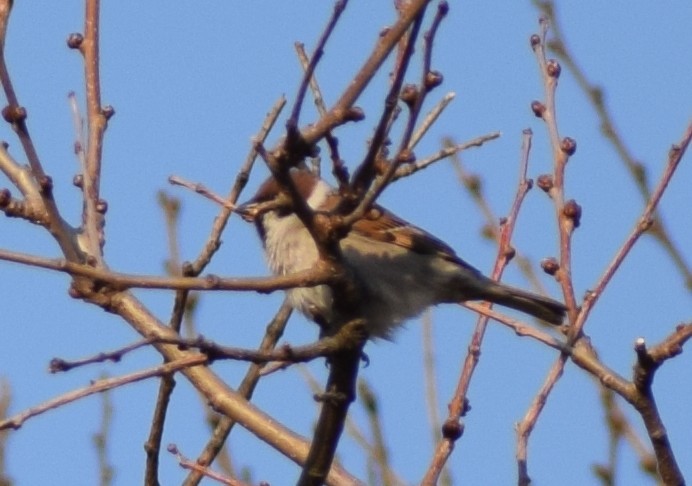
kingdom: Animalia
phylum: Chordata
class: Aves
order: Passeriformes
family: Passeridae
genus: Passer
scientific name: Passer montanus
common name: Eurasian tree sparrow
